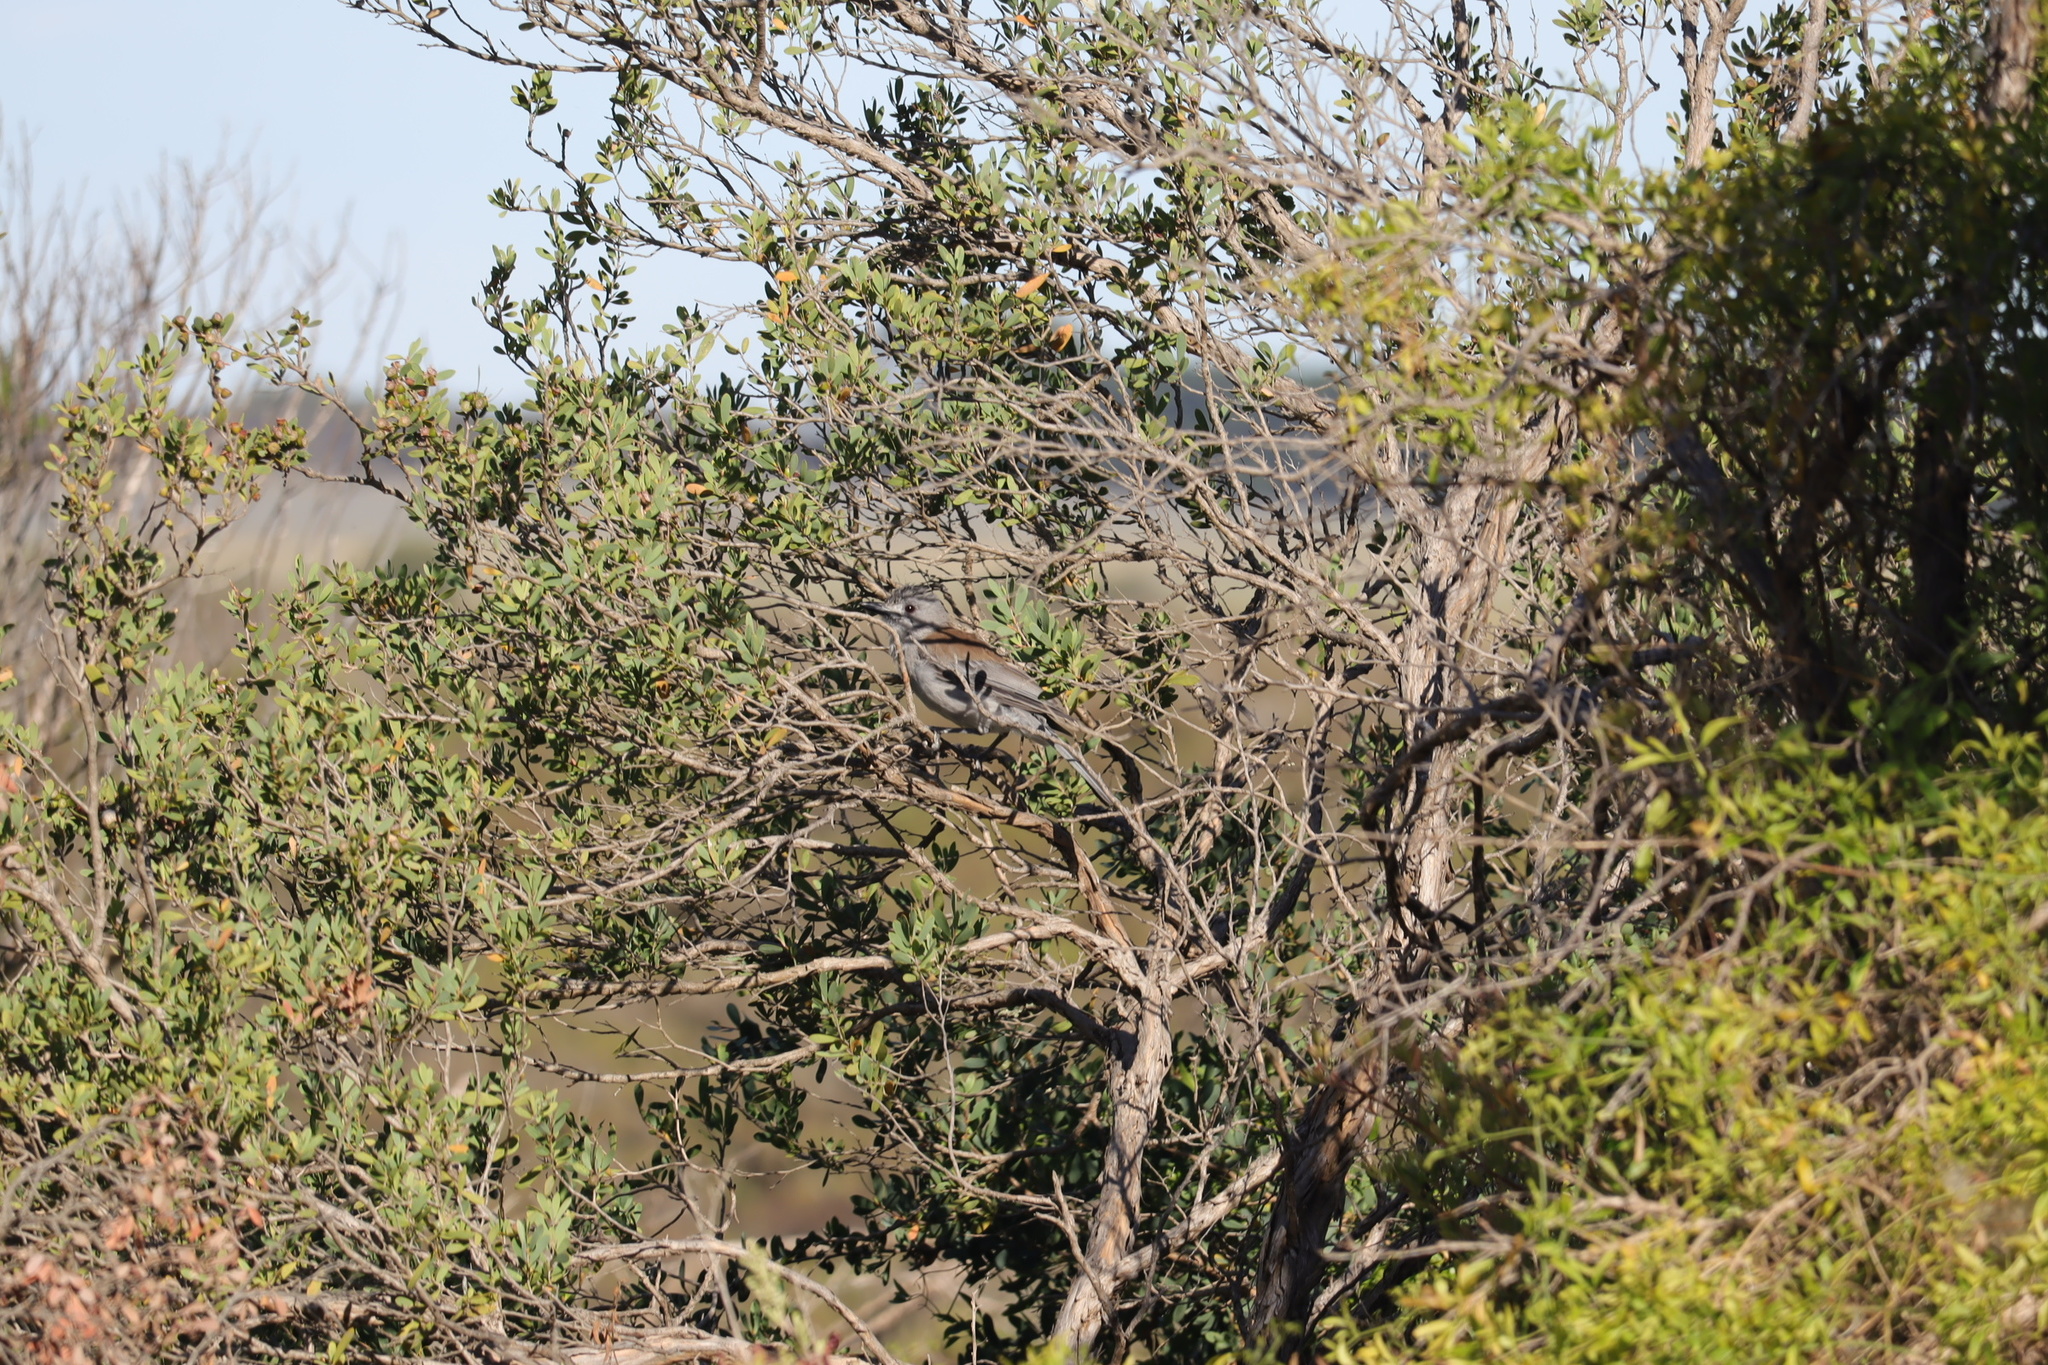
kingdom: Animalia
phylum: Chordata
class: Aves
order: Passeriformes
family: Pachycephalidae
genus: Colluricincla
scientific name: Colluricincla harmonica
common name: Grey shrikethrush
